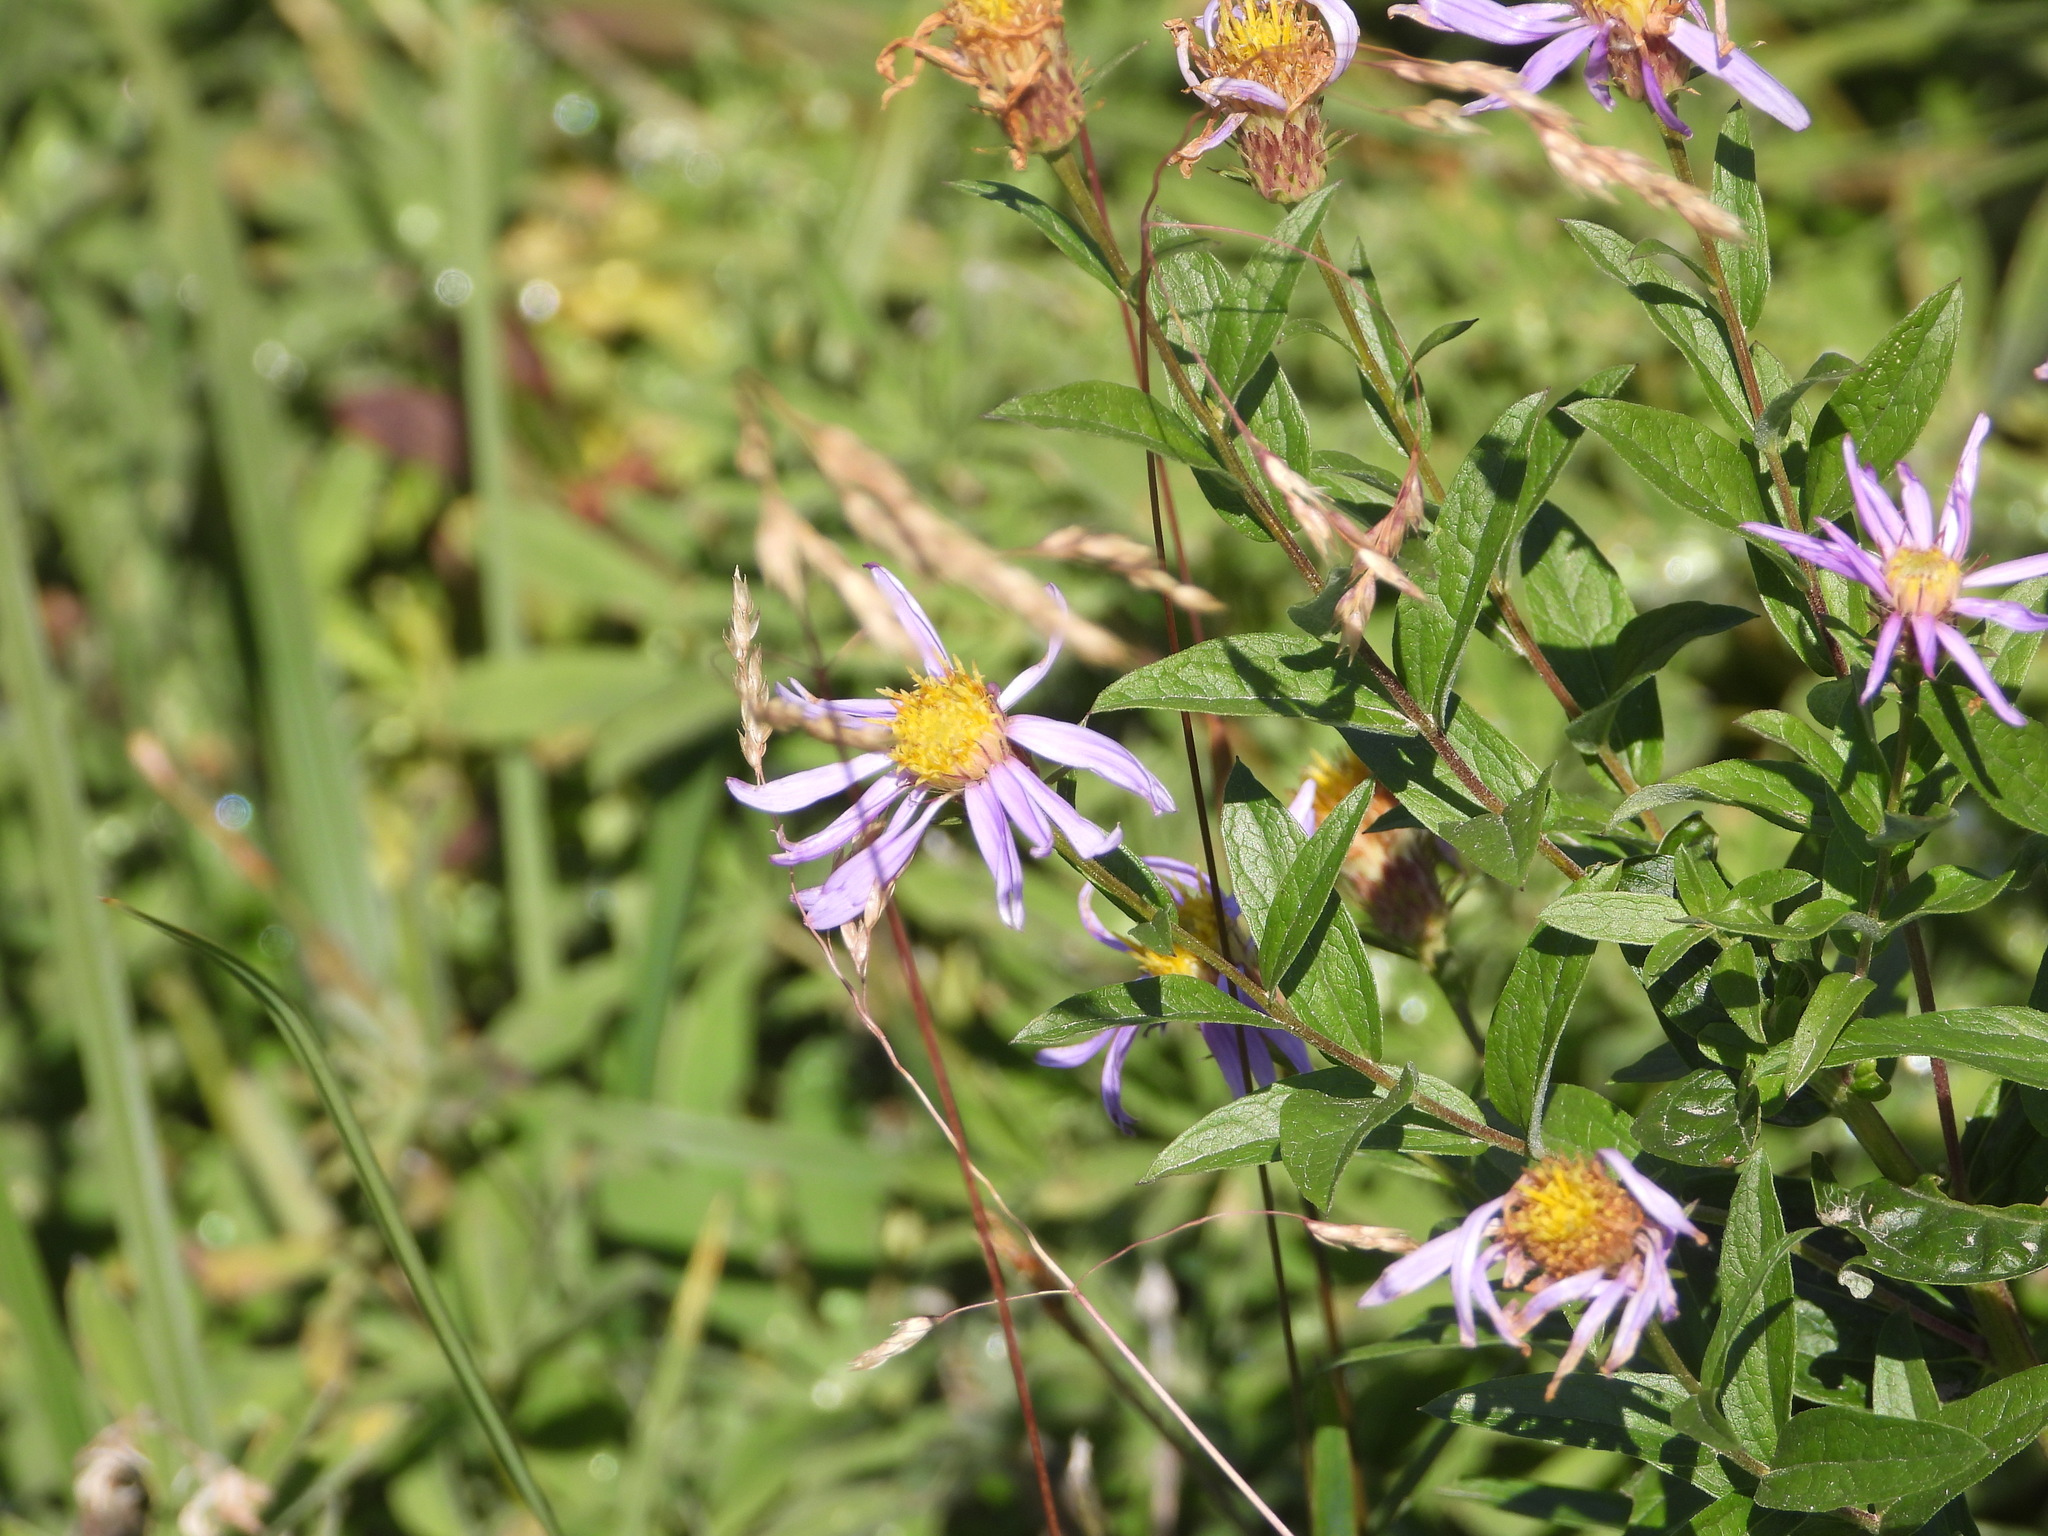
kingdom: Plantae
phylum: Tracheophyta
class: Magnoliopsida
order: Asterales
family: Asteraceae
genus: Eucephalus
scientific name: Eucephalus ledophyllus
